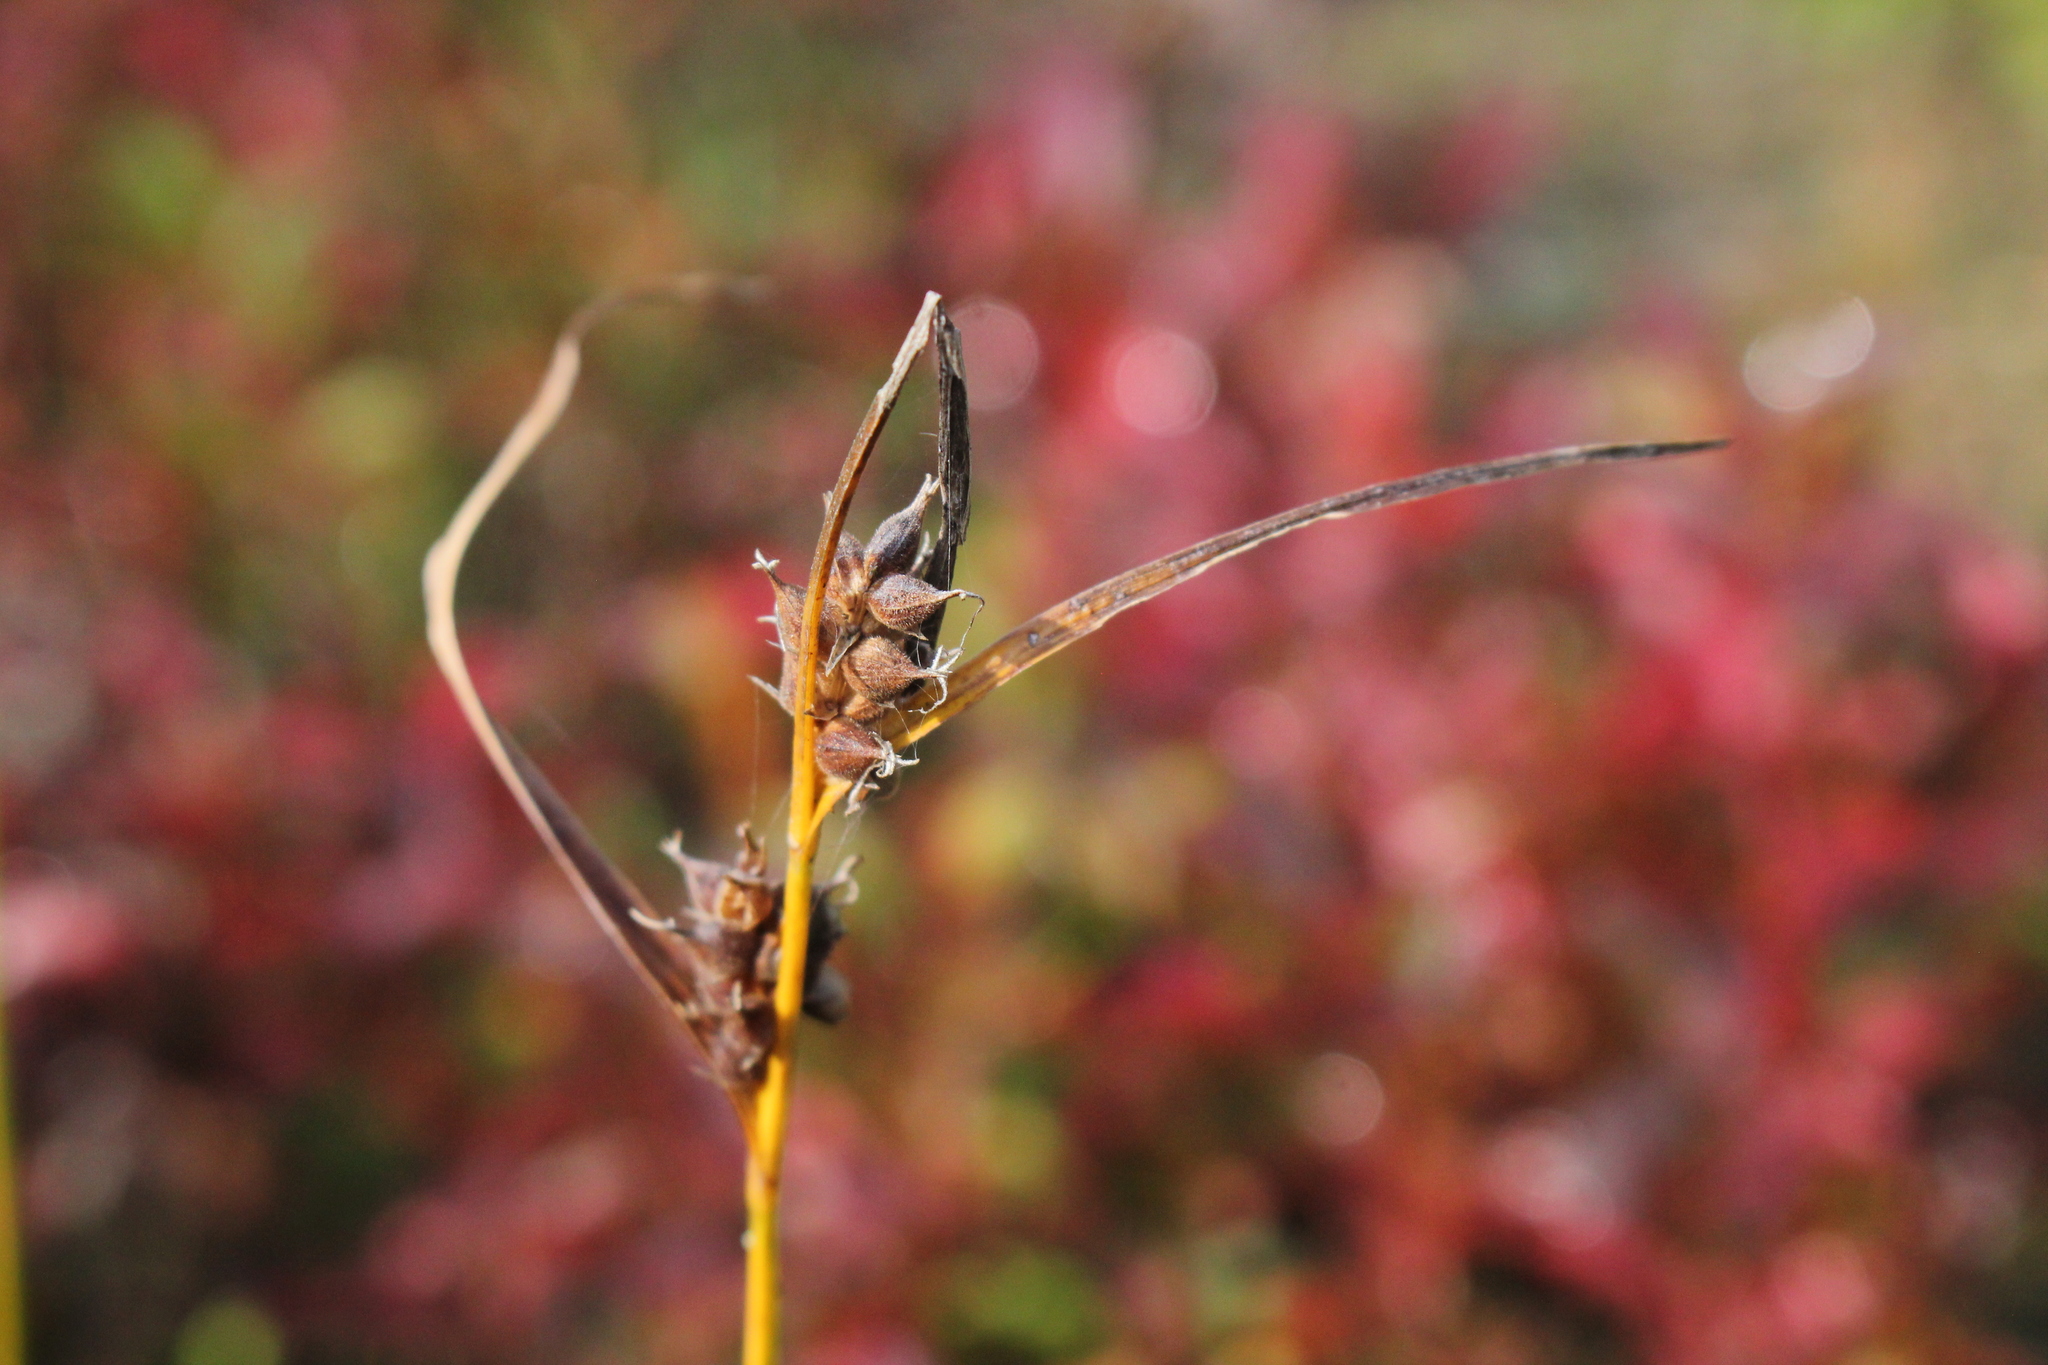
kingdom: Plantae
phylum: Tracheophyta
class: Liliopsida
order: Poales
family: Cyperaceae
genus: Carex
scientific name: Carex houghtoniana
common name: Houghton's sedge
